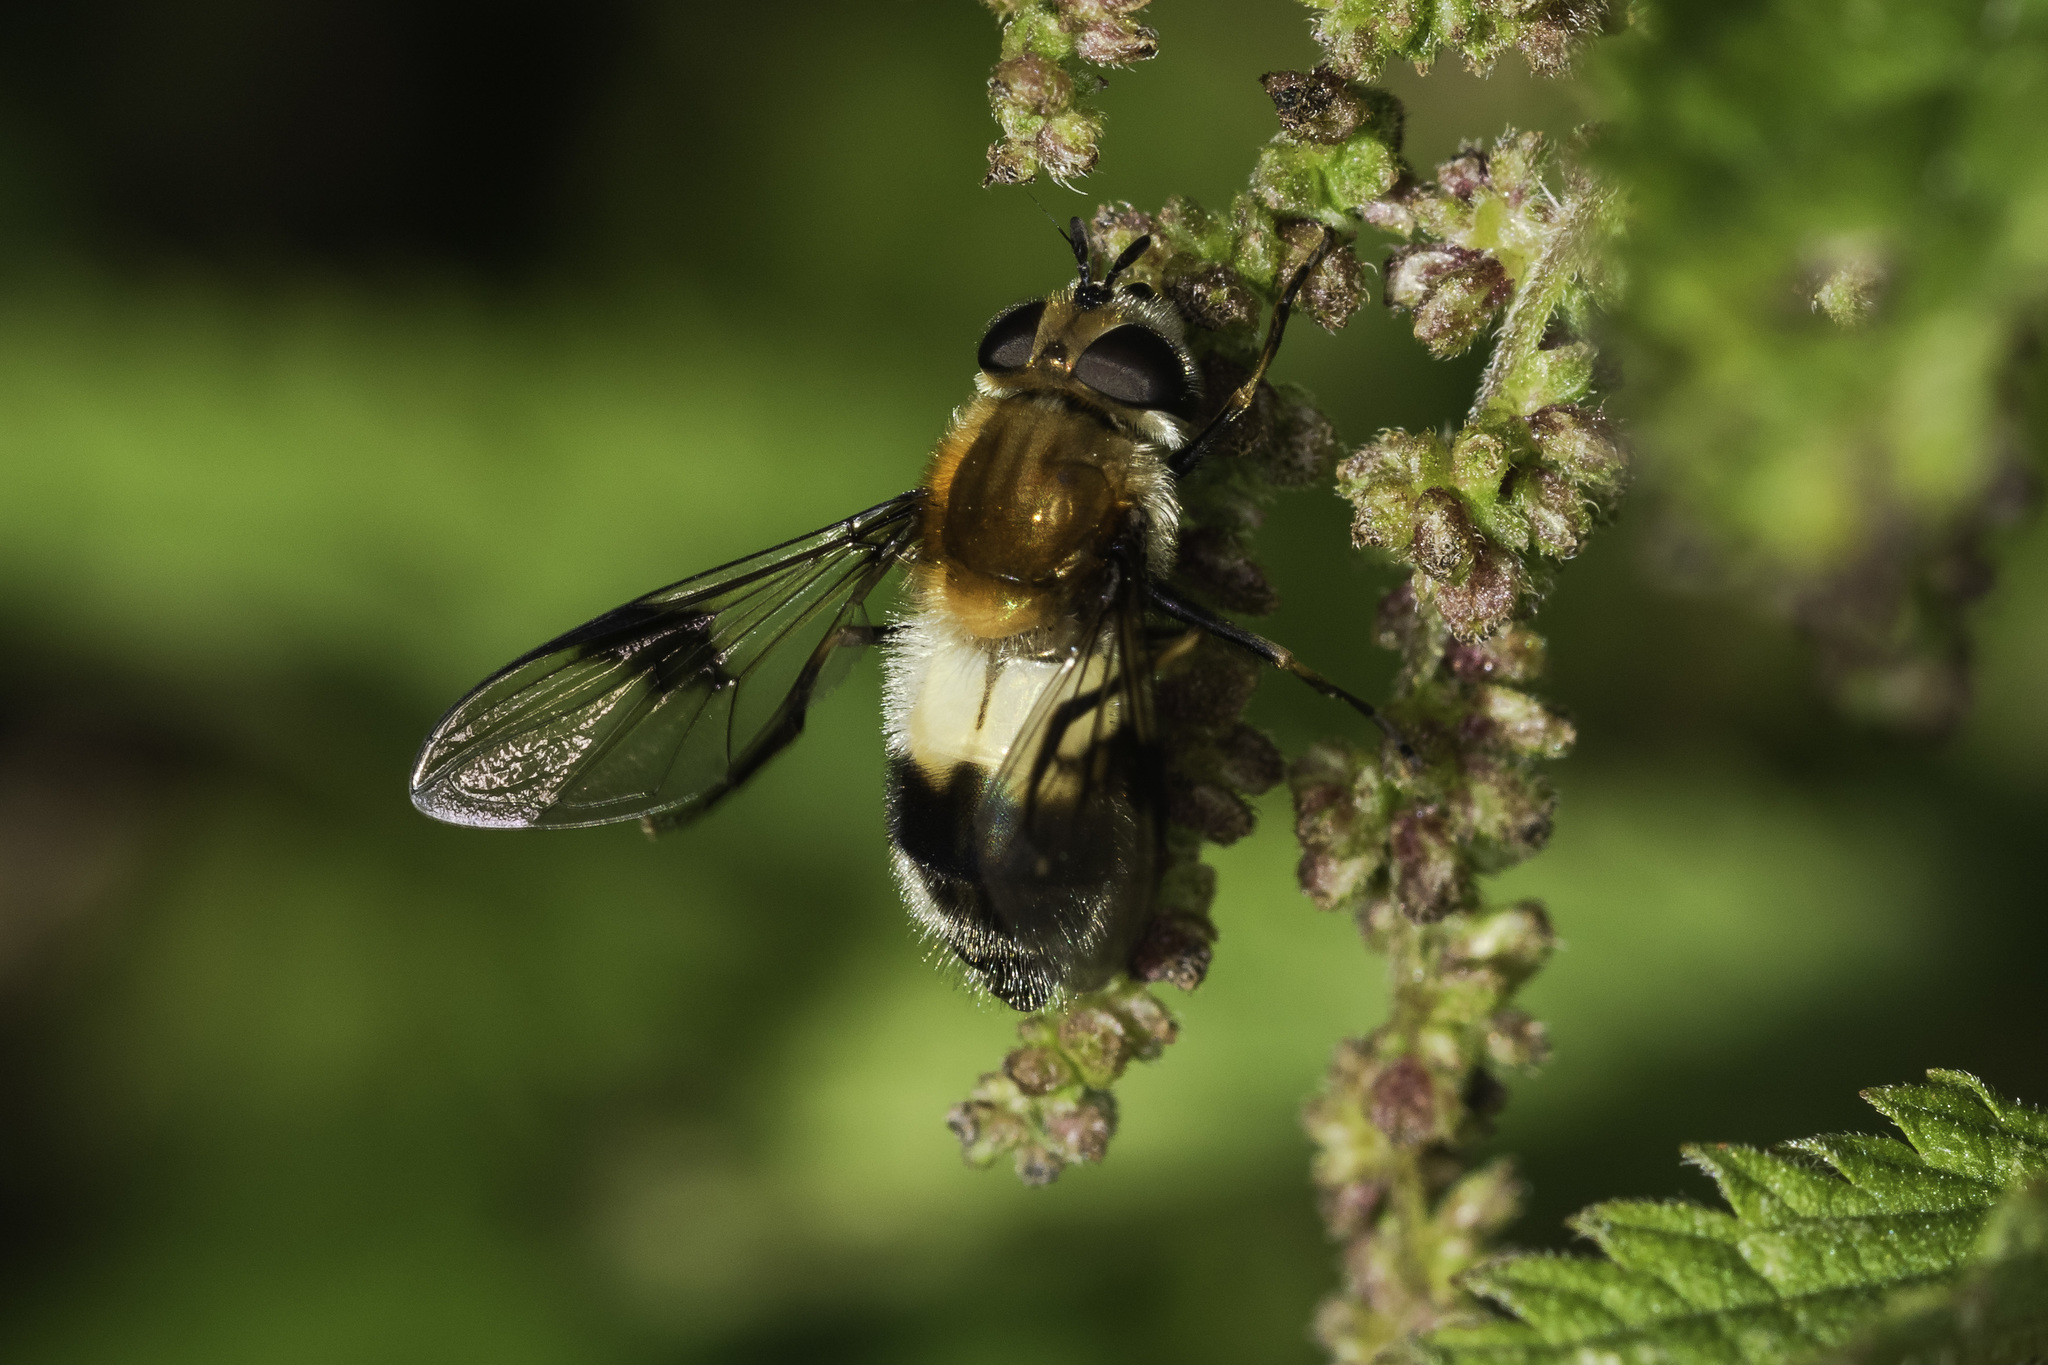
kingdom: Animalia
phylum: Arthropoda
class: Insecta
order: Diptera
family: Syrphidae
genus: Leucozona
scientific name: Leucozona lucorum
